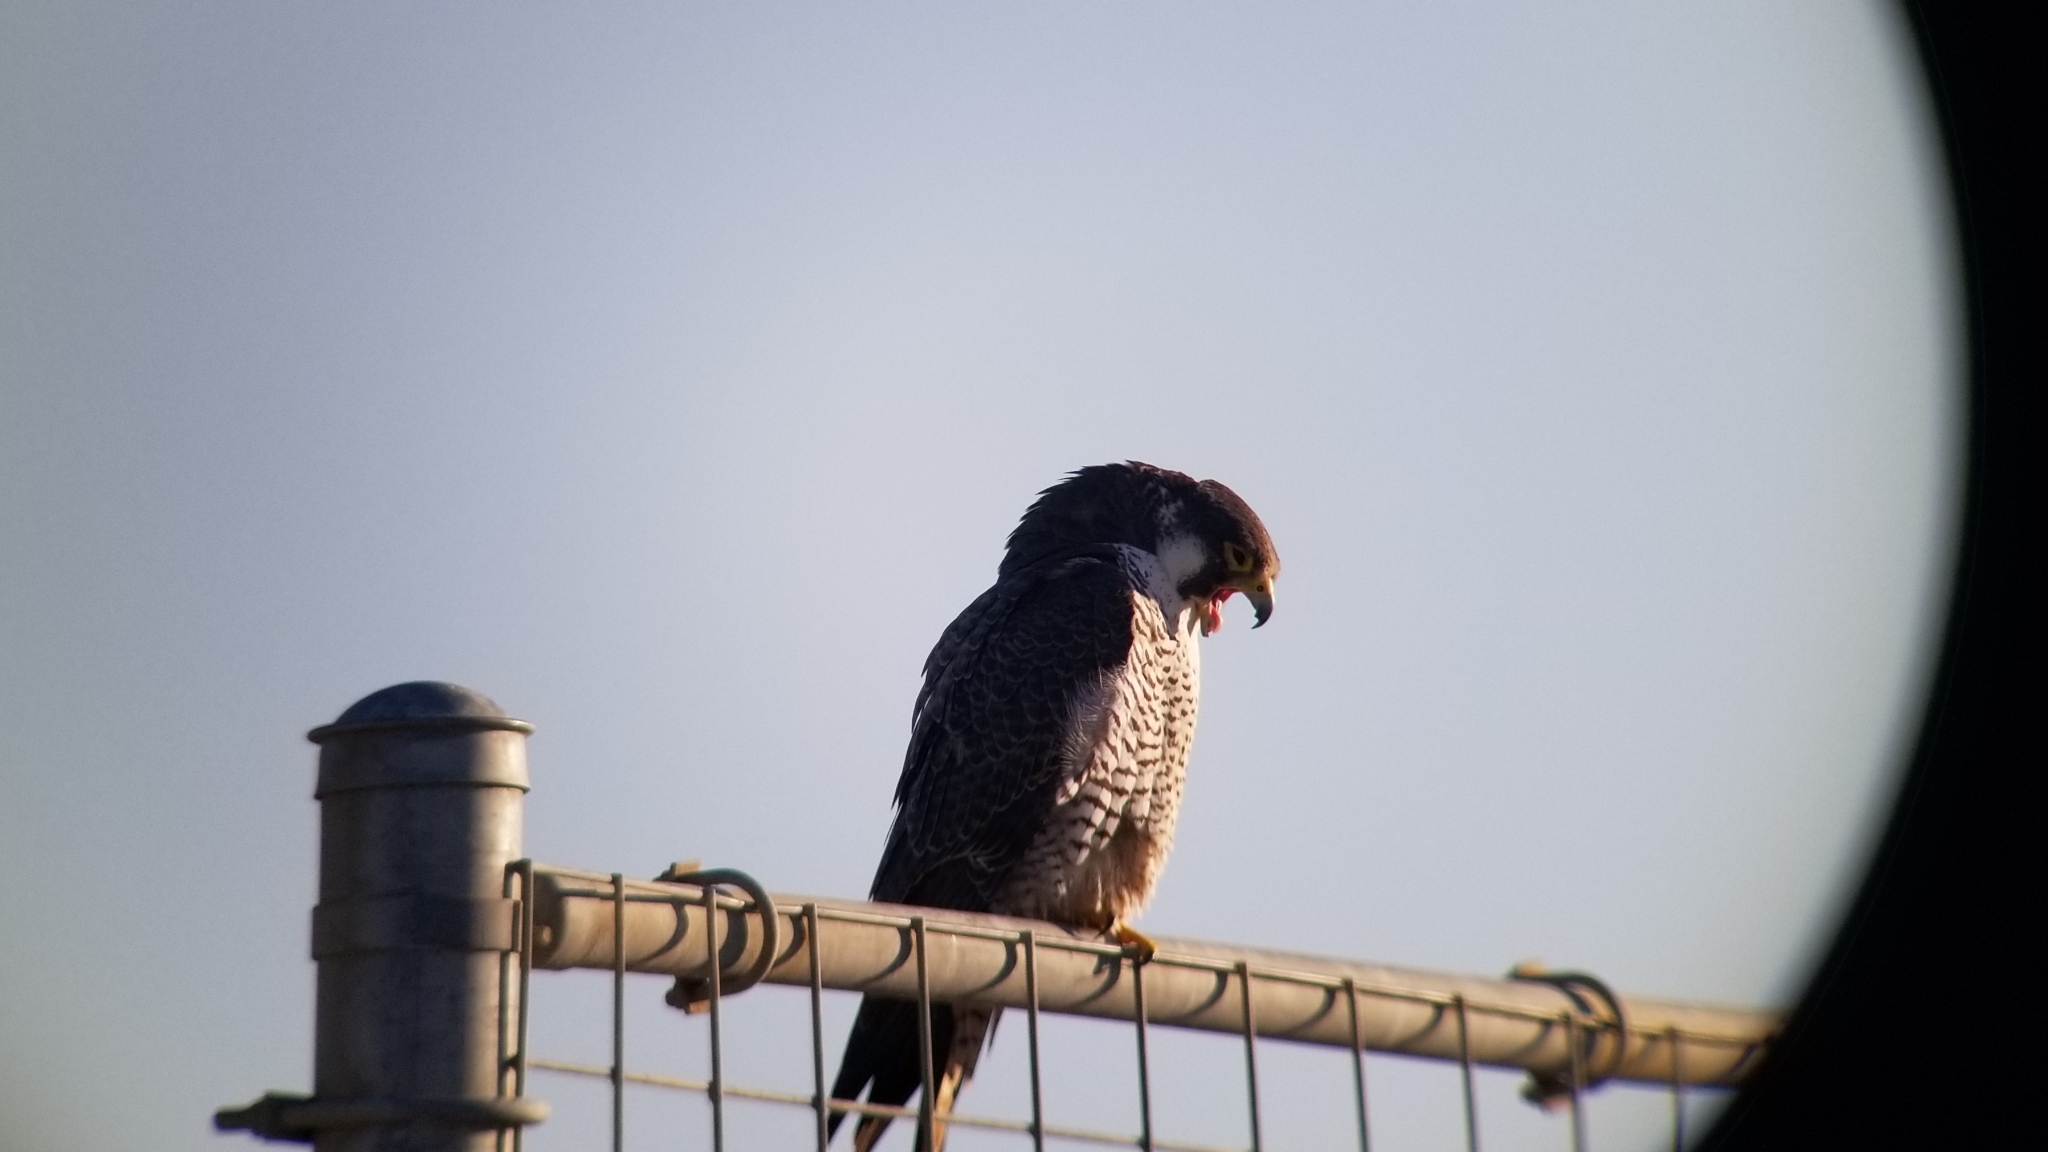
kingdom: Animalia
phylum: Chordata
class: Aves
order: Falconiformes
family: Falconidae
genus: Falco
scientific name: Falco peregrinus
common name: Peregrine falcon
